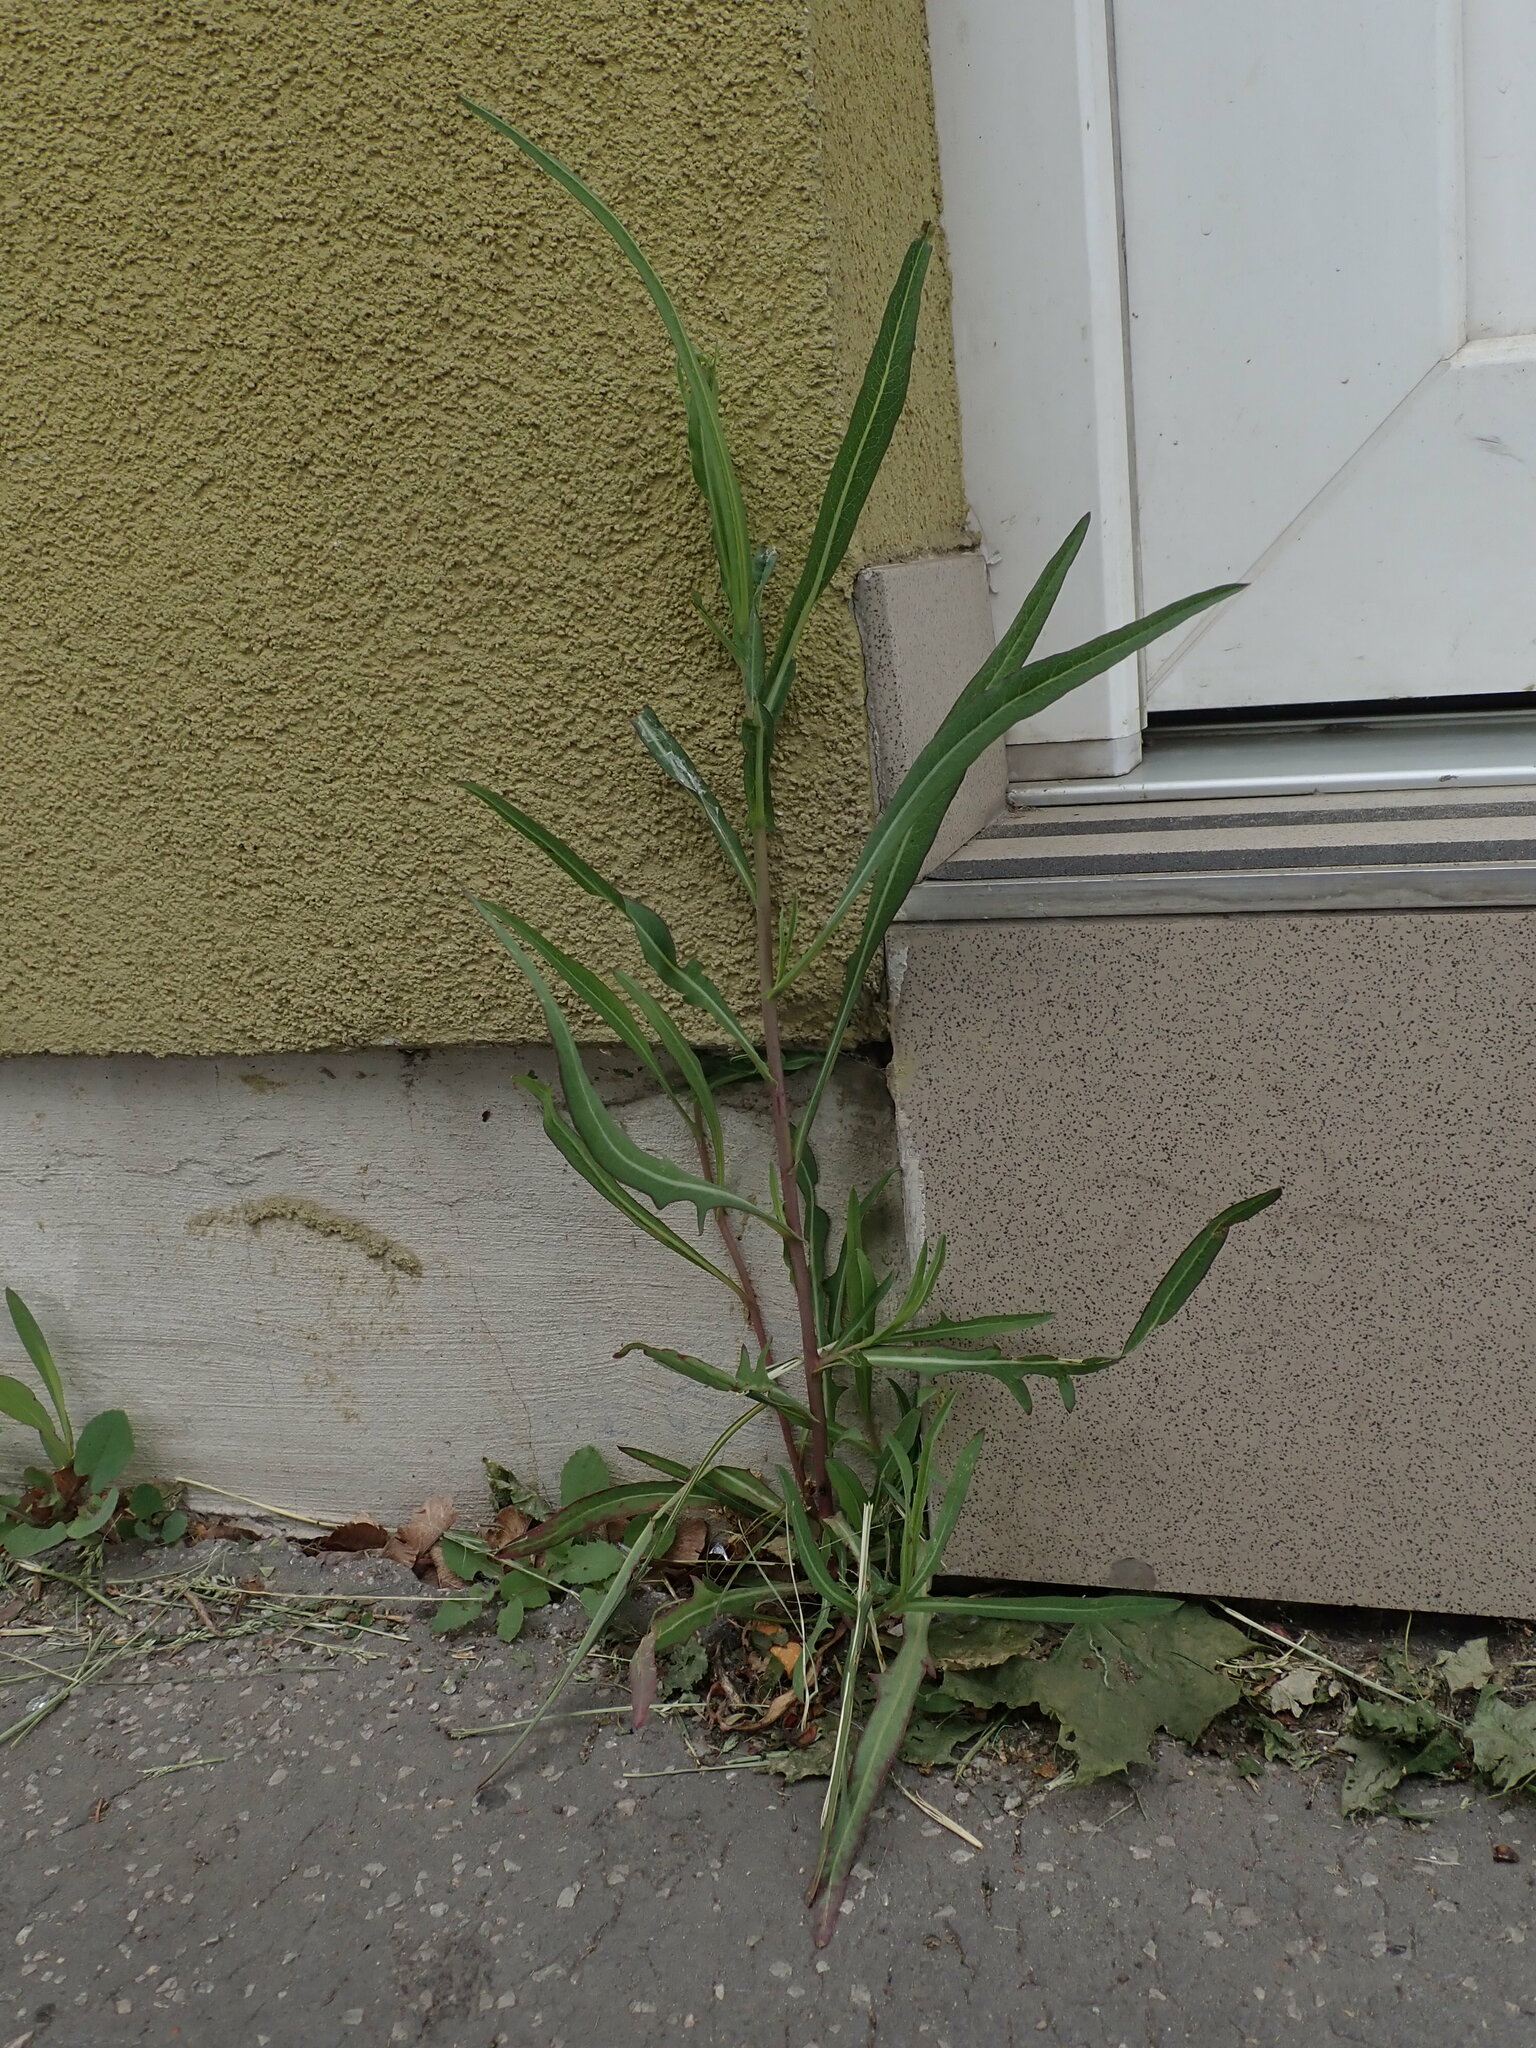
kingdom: Plantae
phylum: Tracheophyta
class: Magnoliopsida
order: Asterales
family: Asteraceae
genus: Lactuca
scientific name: Lactuca saligna
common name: Wild lettuce
